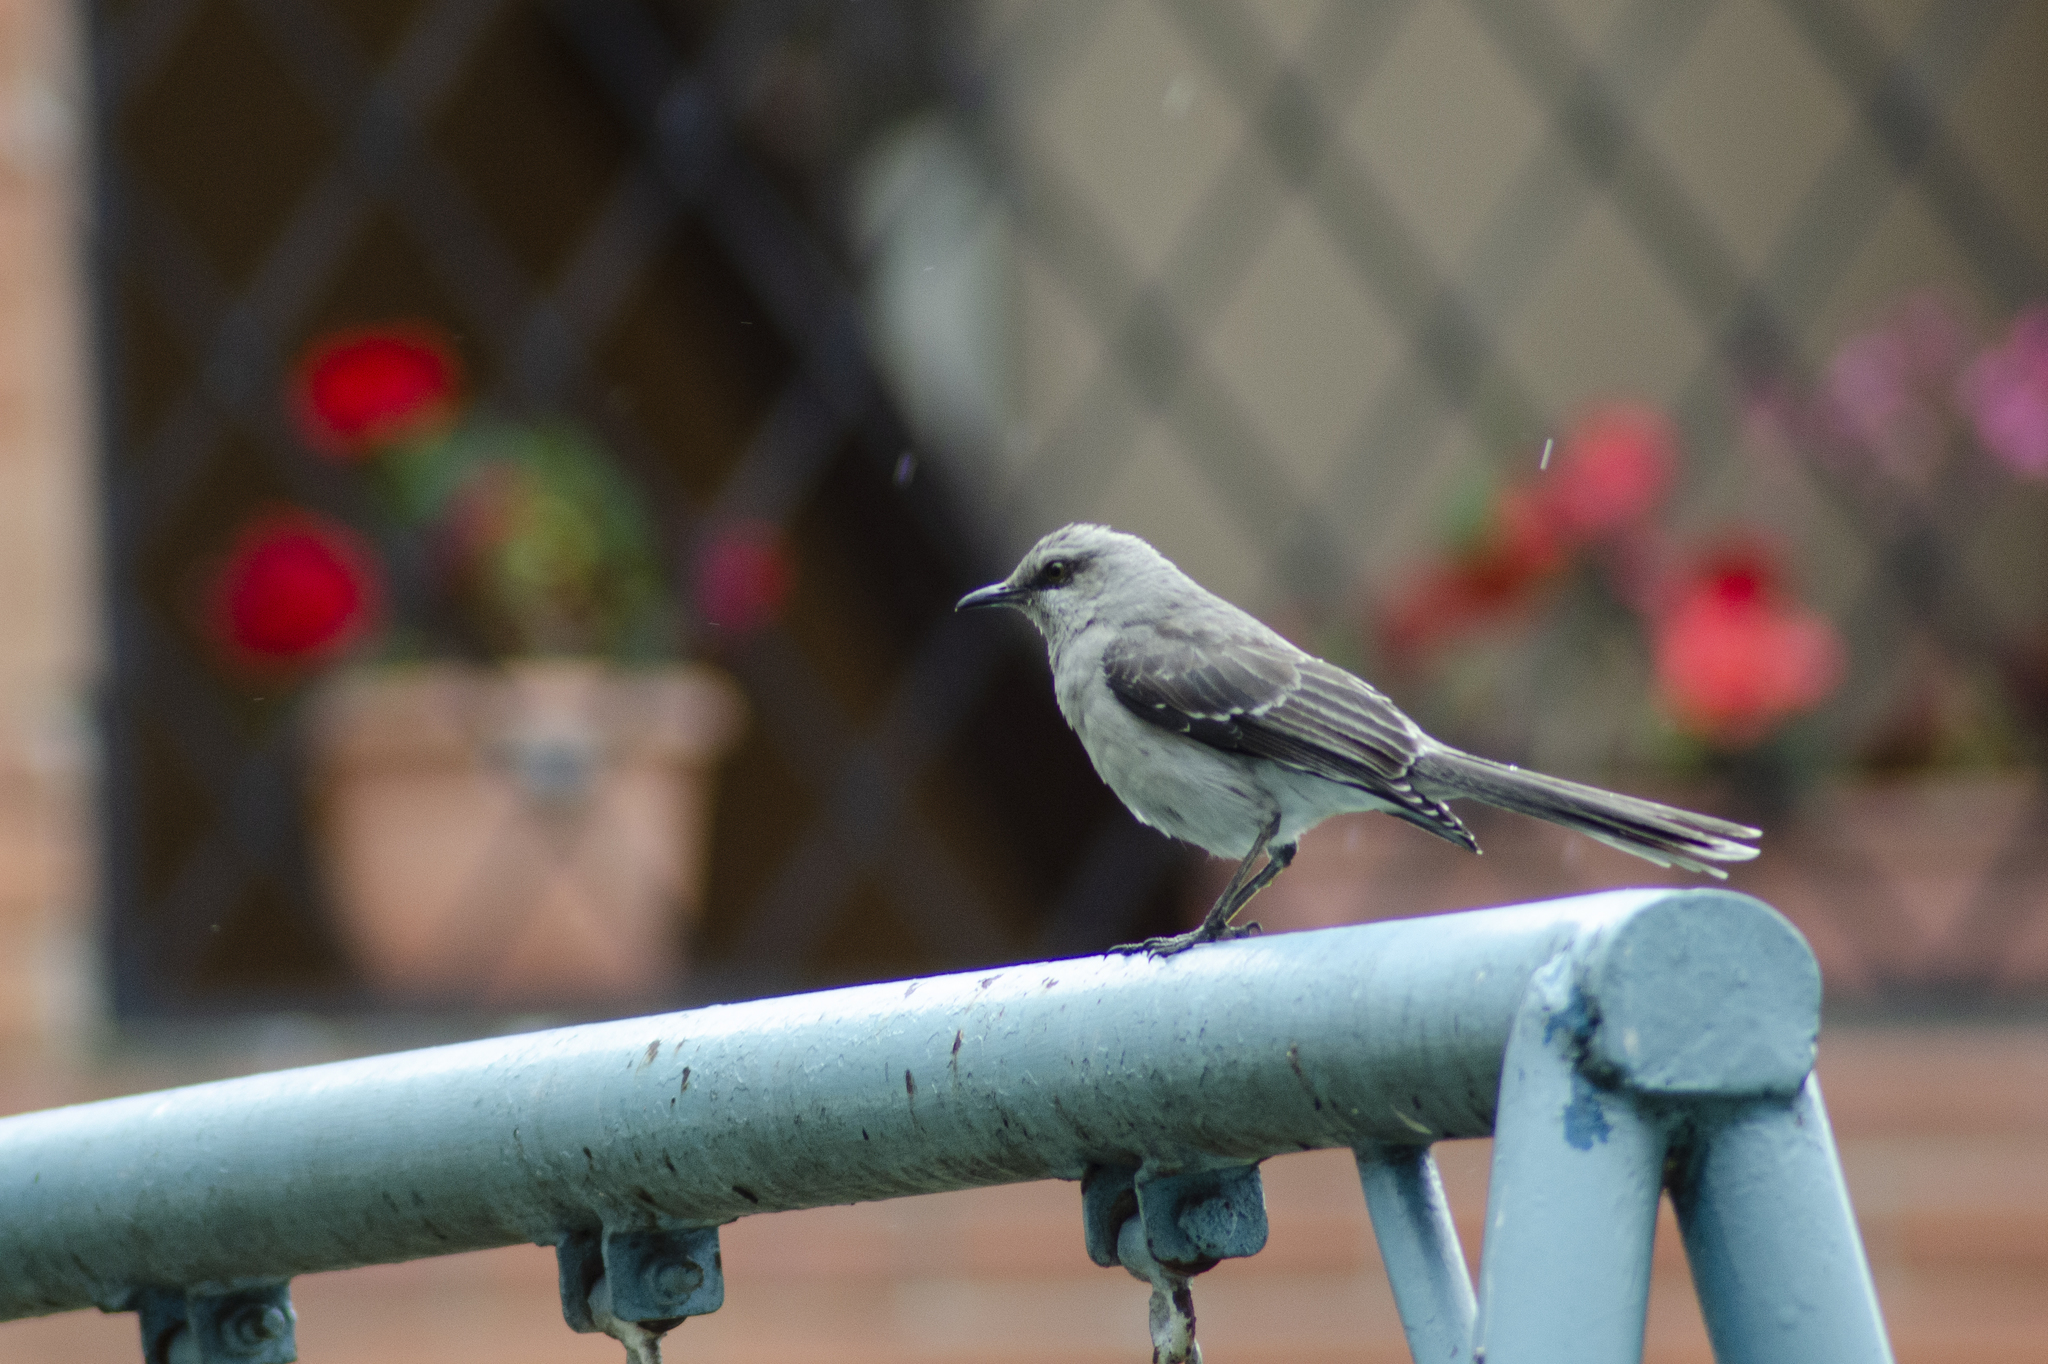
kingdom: Animalia
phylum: Chordata
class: Aves
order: Passeriformes
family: Mimidae
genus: Mimus
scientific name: Mimus gilvus
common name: Tropical mockingbird
